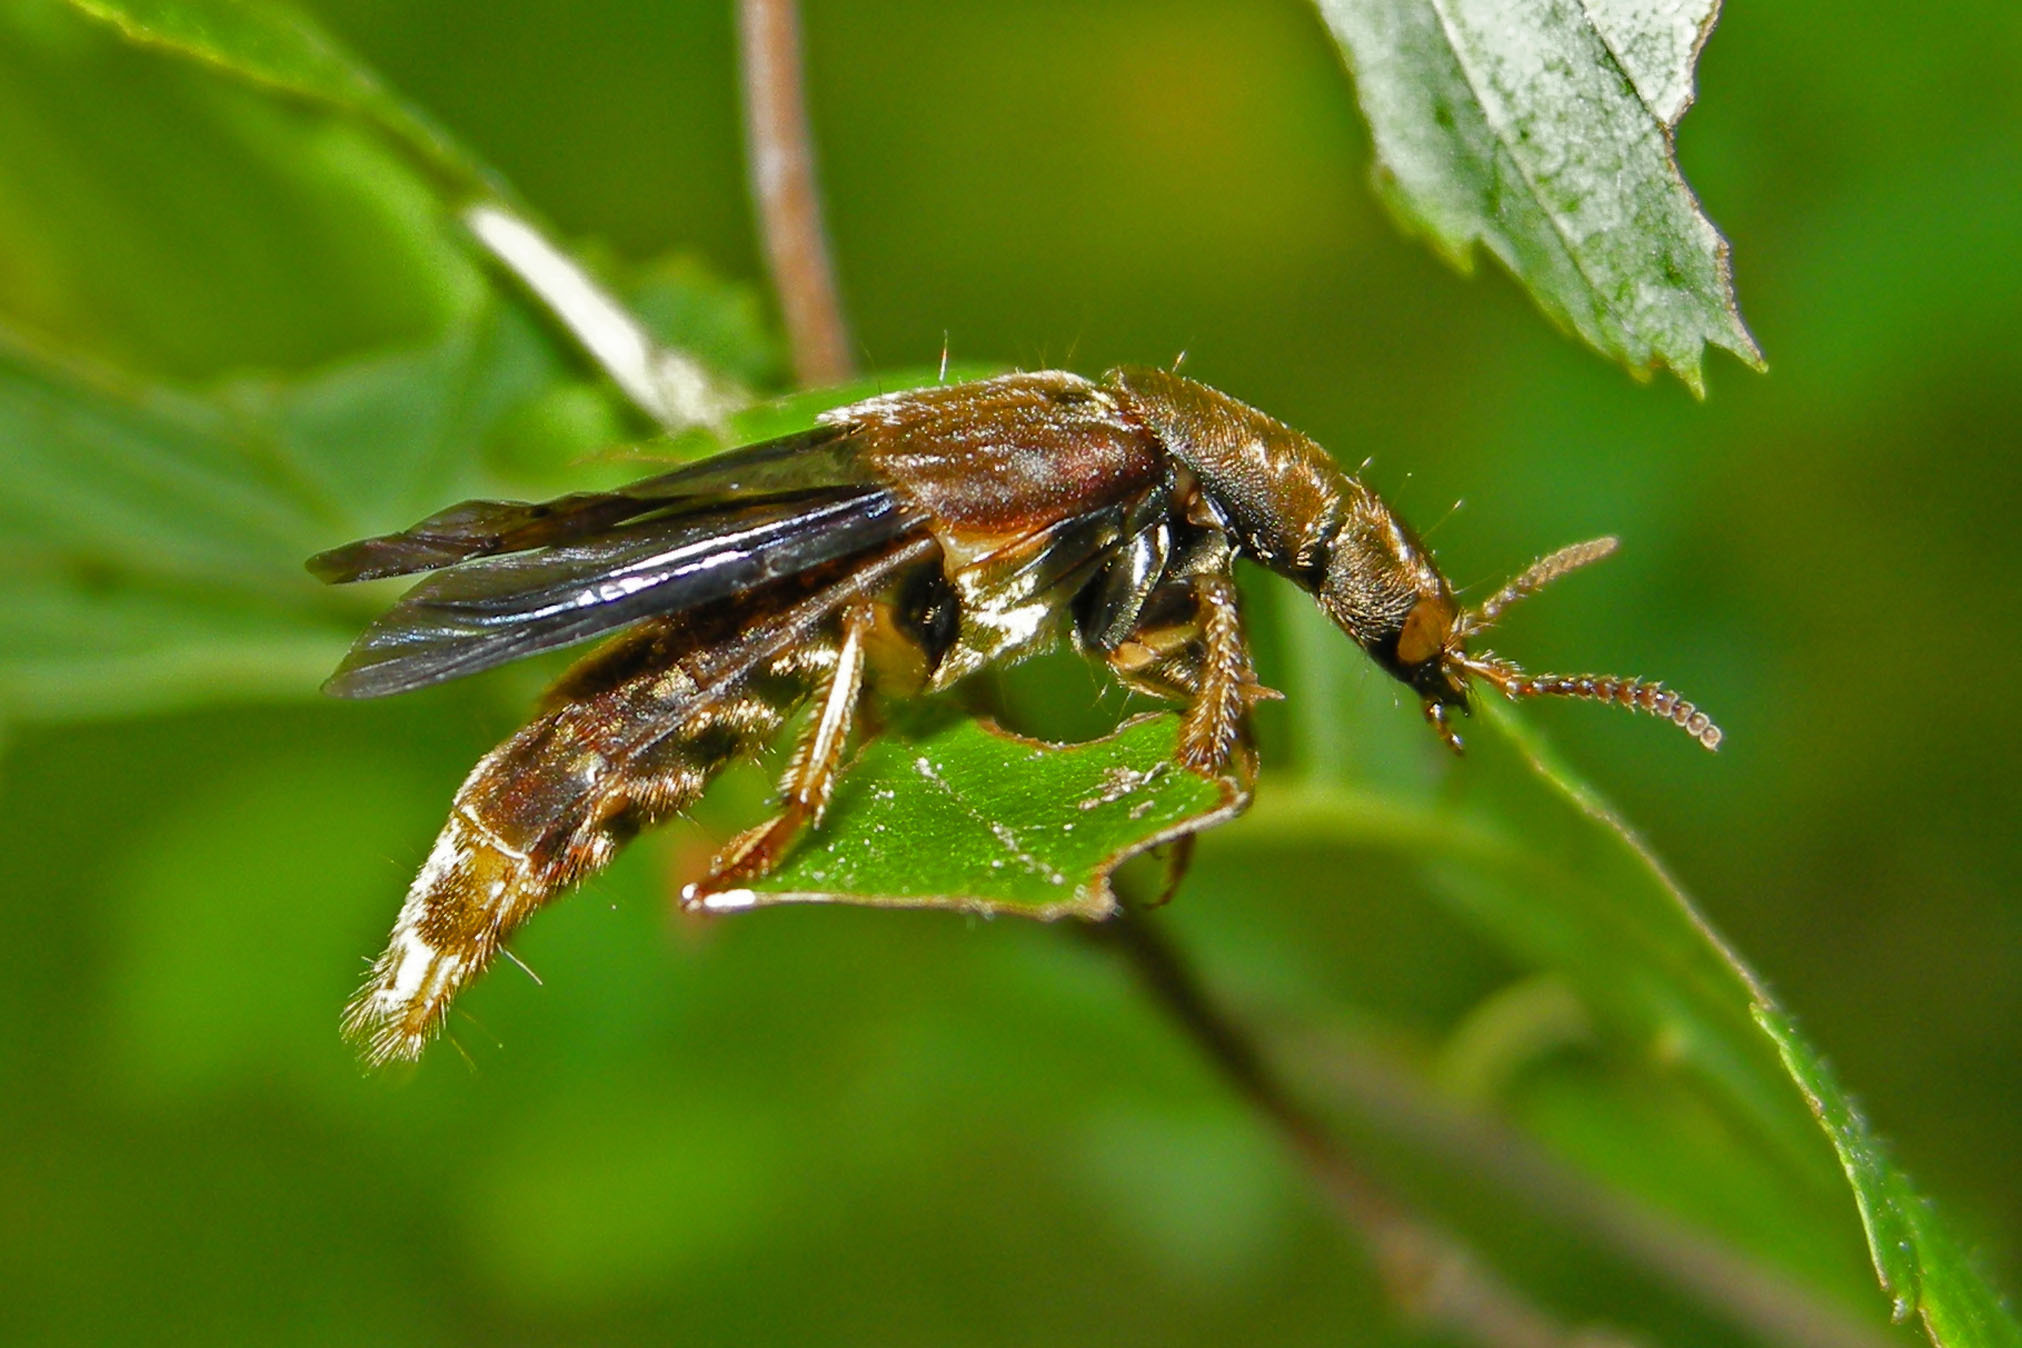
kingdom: Animalia
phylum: Arthropoda
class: Insecta
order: Coleoptera
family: Staphylinidae
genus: Platydracus
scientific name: Platydracus maculosus
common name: Brown rove beetle
